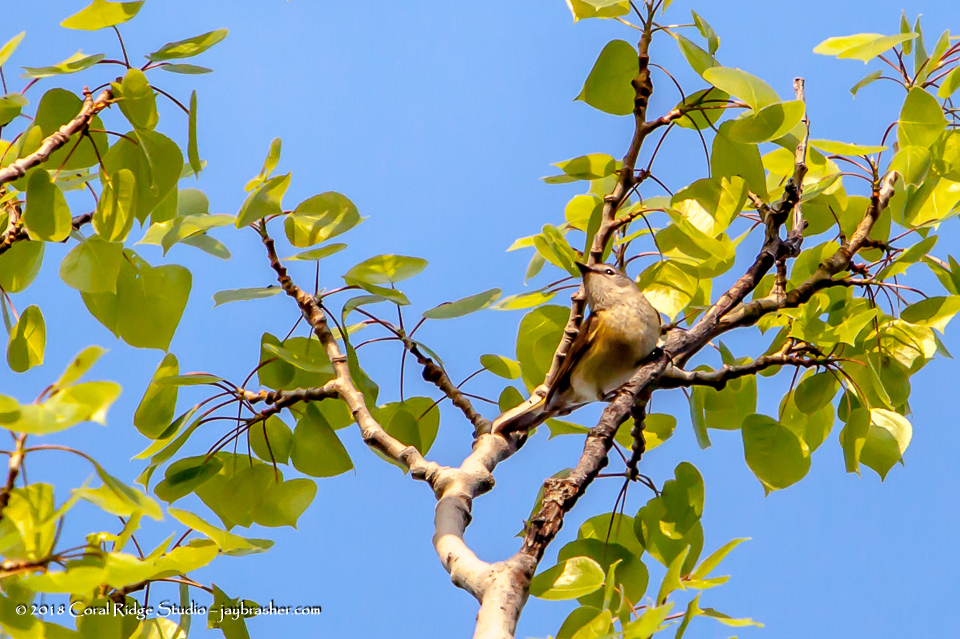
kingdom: Animalia
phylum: Chordata
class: Aves
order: Passeriformes
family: Parulidae
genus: Setophaga
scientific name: Setophaga ruticilla
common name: American redstart
